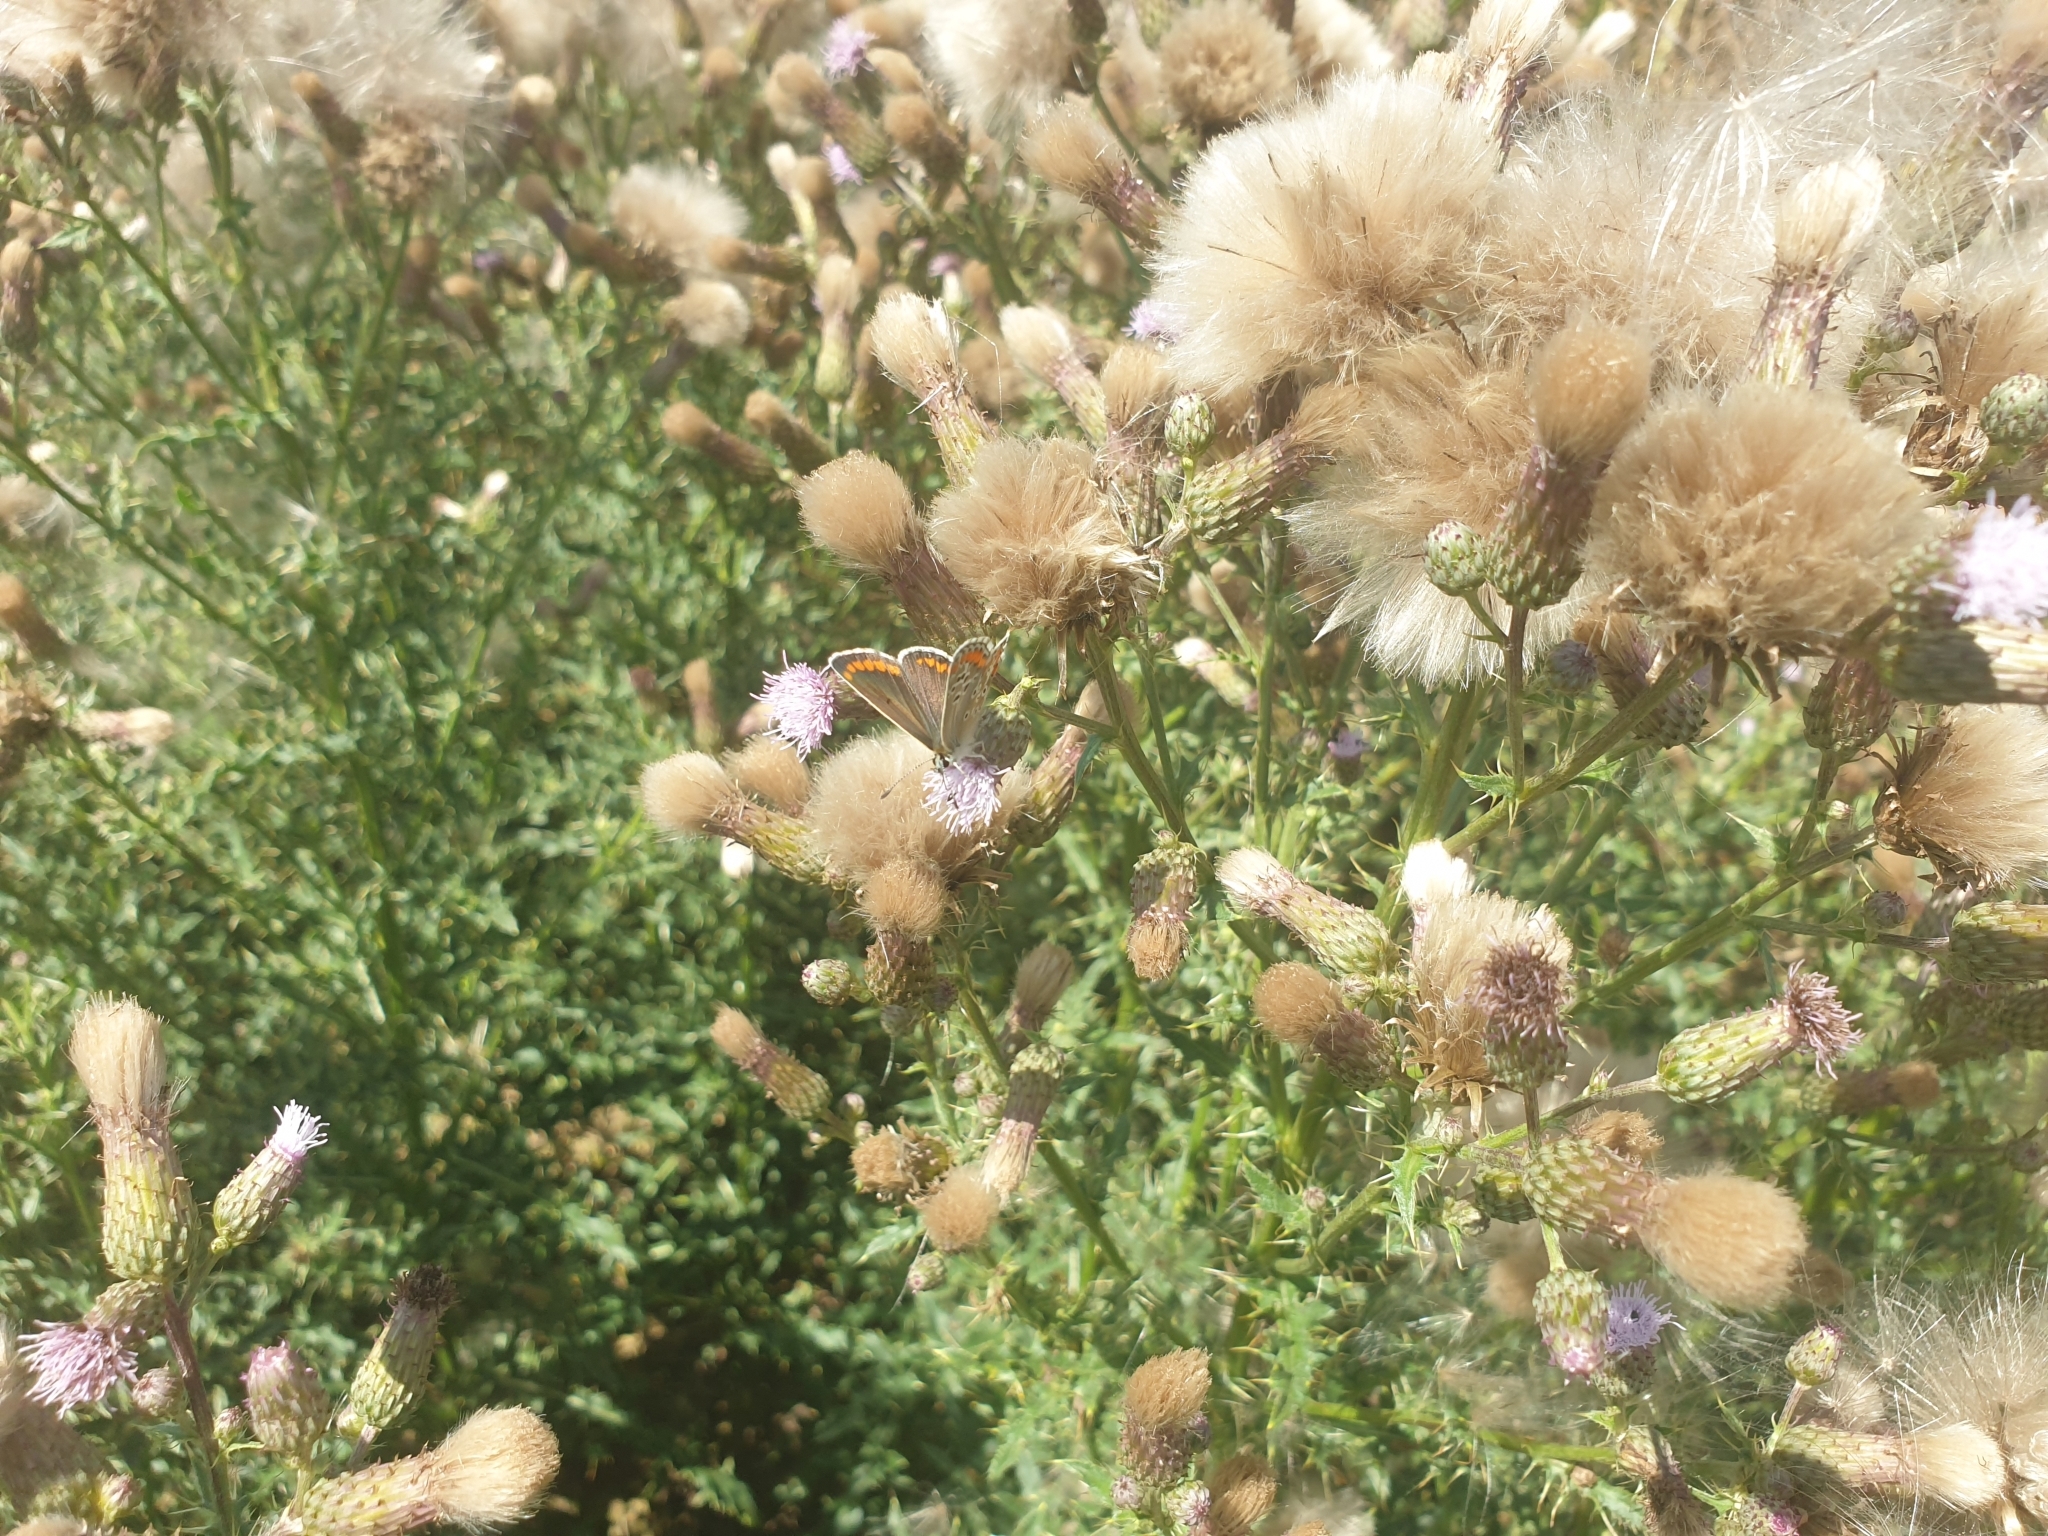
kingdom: Animalia
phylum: Arthropoda
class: Insecta
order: Lepidoptera
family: Lycaenidae
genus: Aricia
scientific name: Aricia agestis
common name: Brown argus
